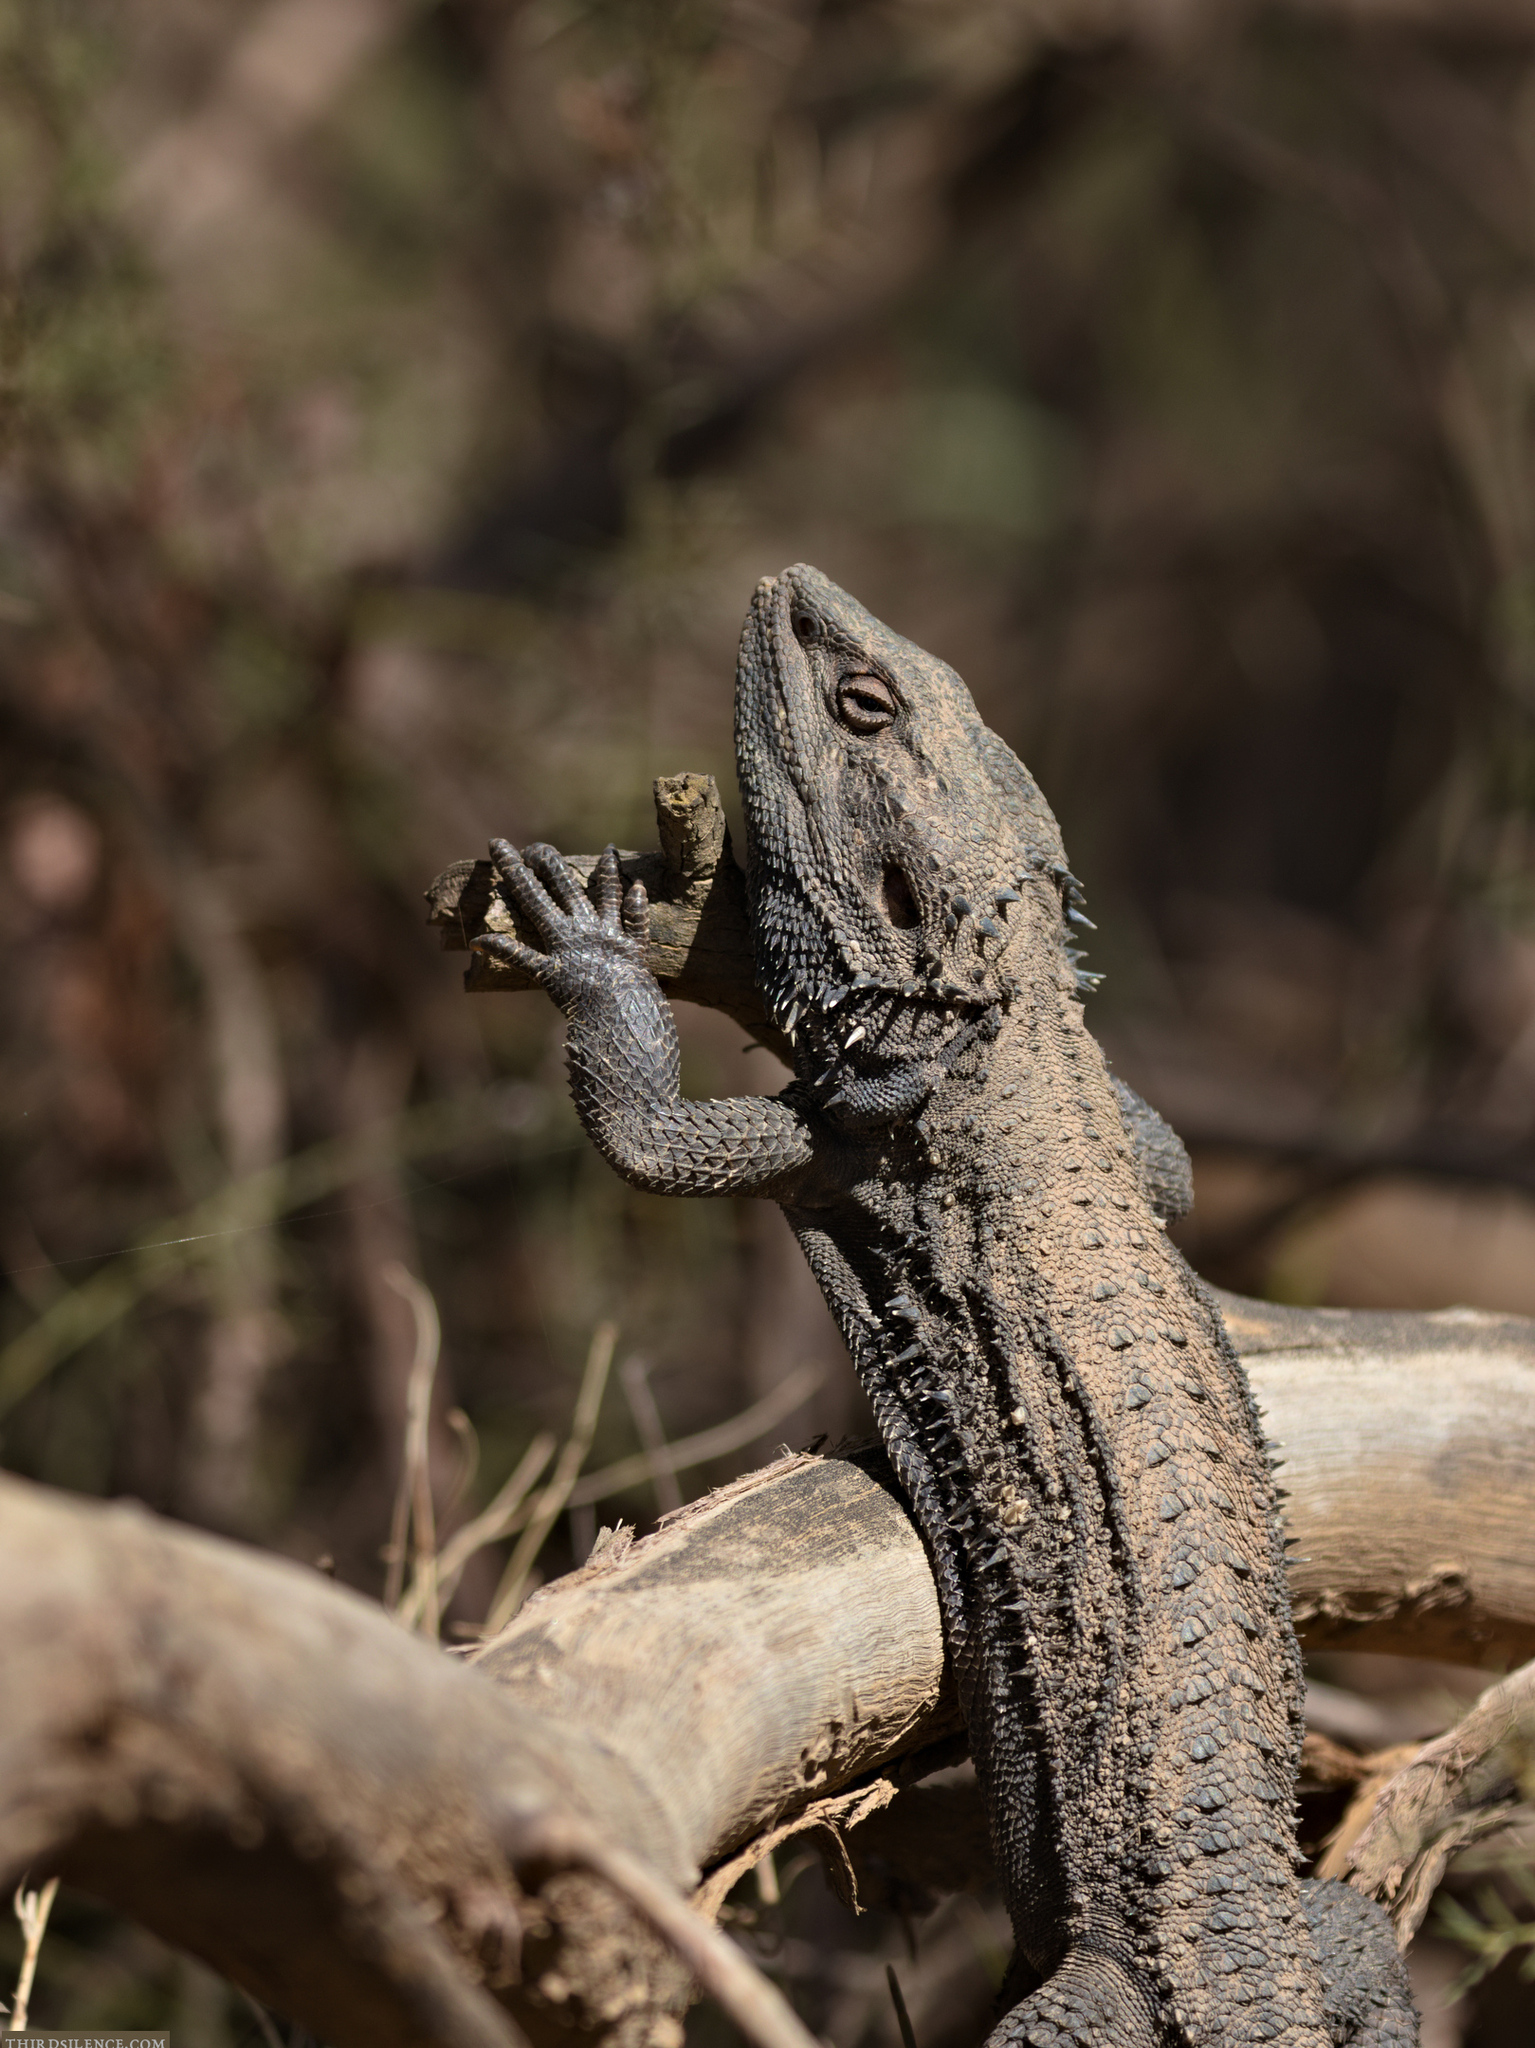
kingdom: Animalia
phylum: Chordata
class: Squamata
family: Agamidae
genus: Pogona
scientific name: Pogona barbata
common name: Bearded dragon
